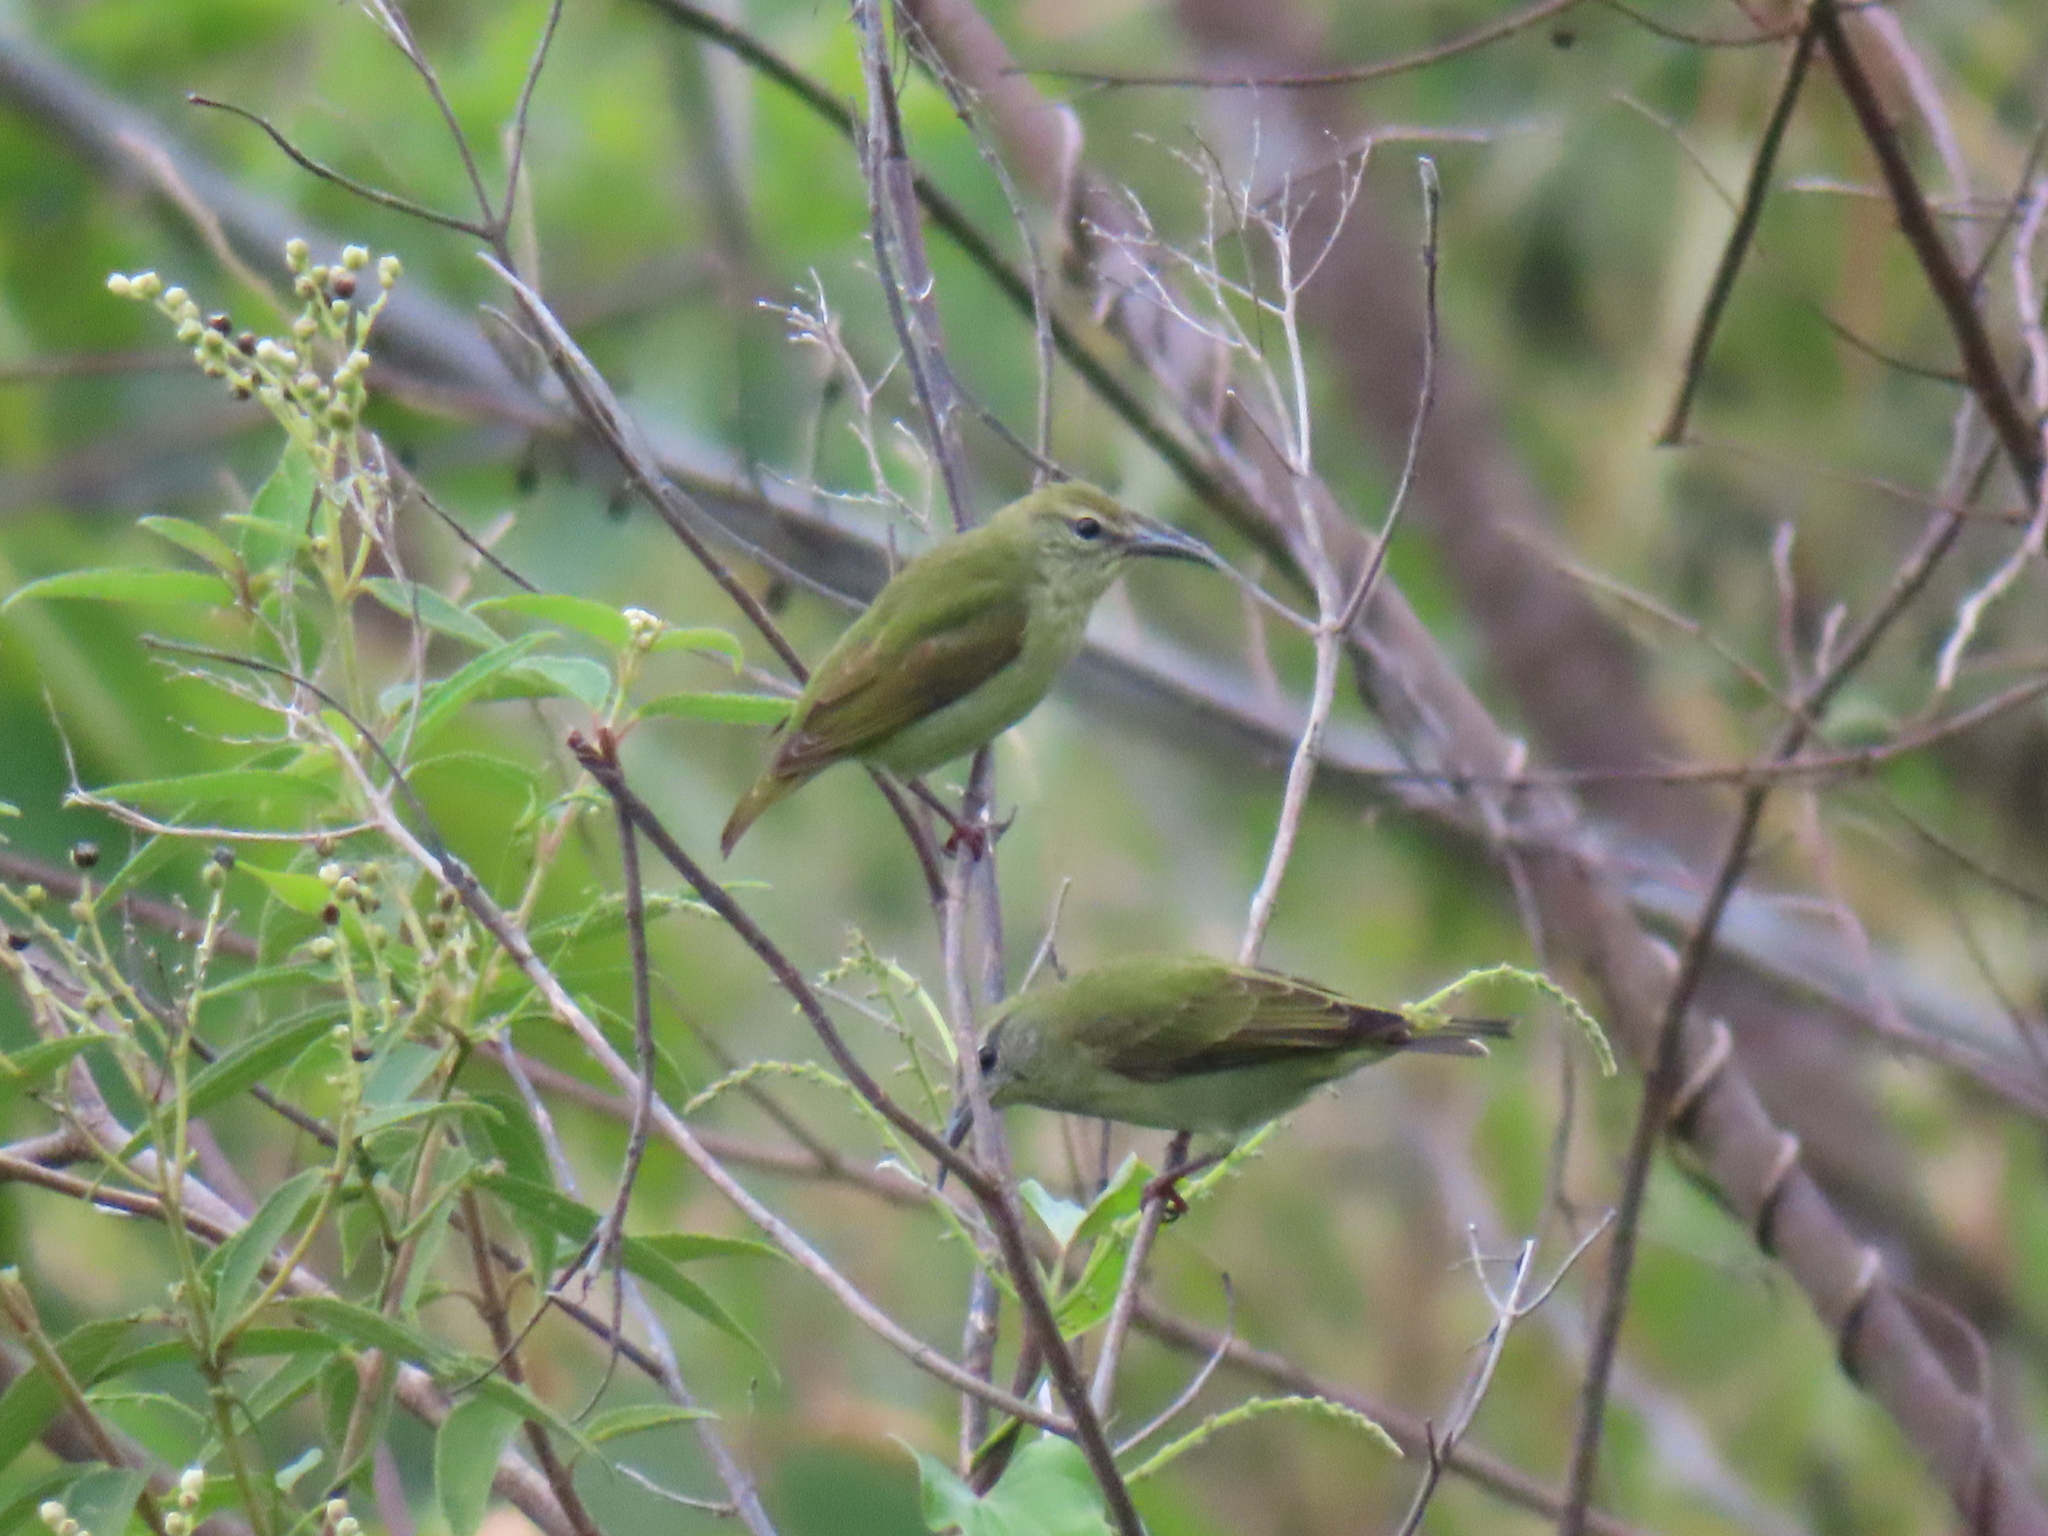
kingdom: Animalia
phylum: Chordata
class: Aves
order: Passeriformes
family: Thraupidae
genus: Cyanerpes
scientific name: Cyanerpes cyaneus
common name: Red-legged honeycreeper
